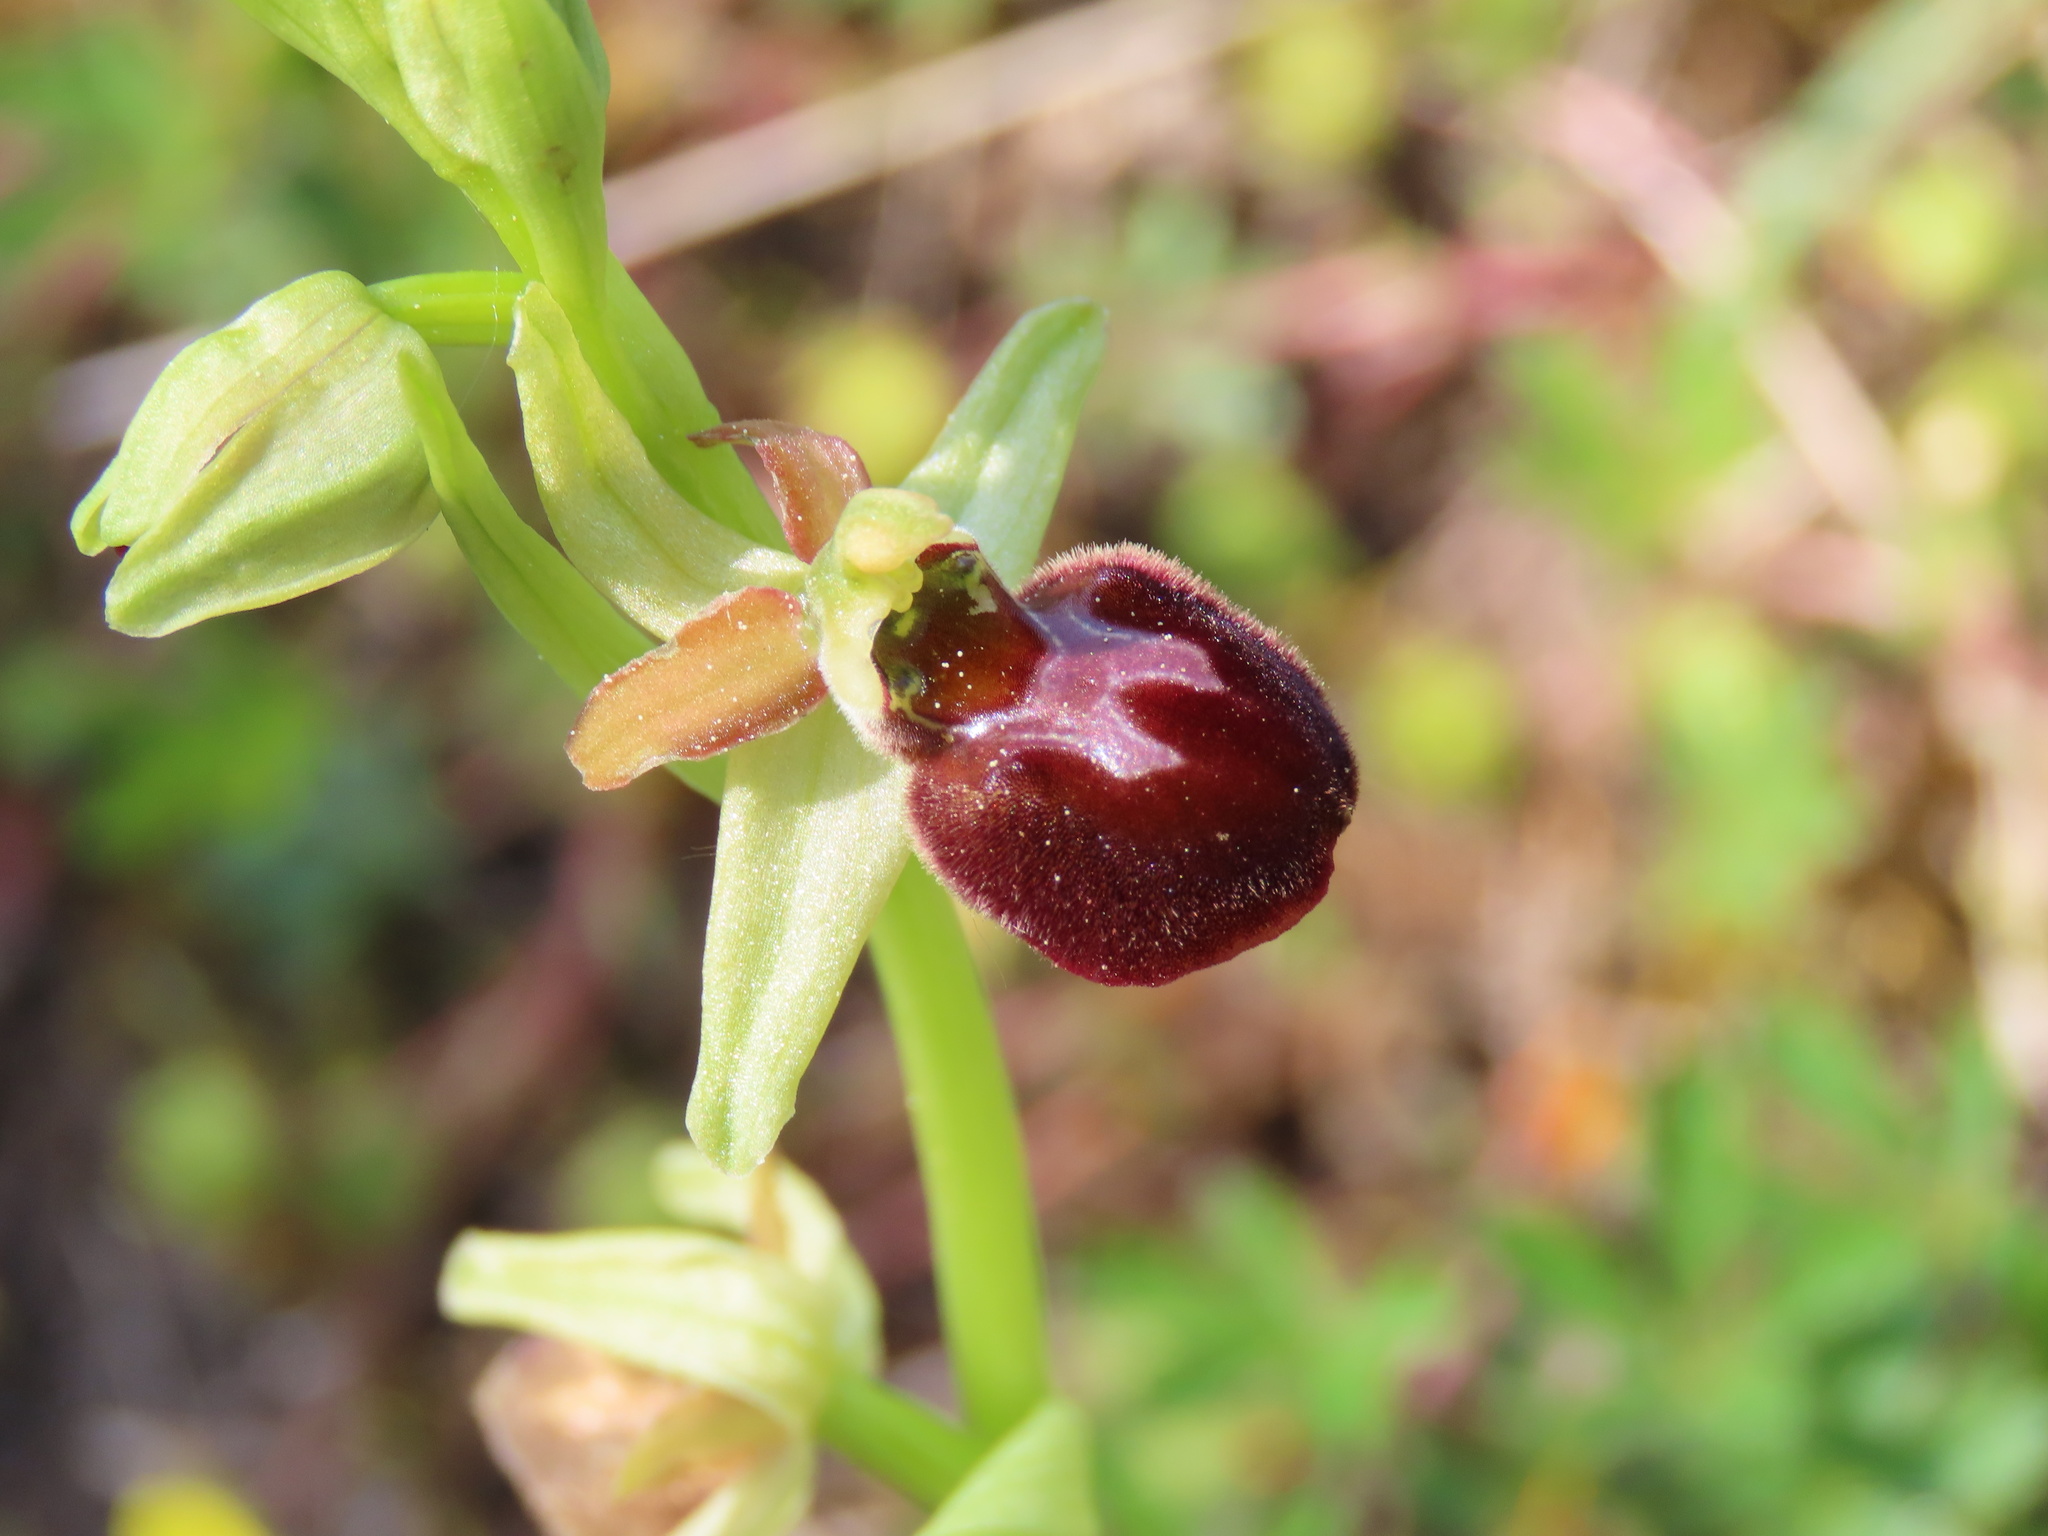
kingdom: Plantae
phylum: Tracheophyta
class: Liliopsida
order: Asparagales
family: Orchidaceae
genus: Ophrys
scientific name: Ophrys sphegodes
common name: Early spider-orchid
